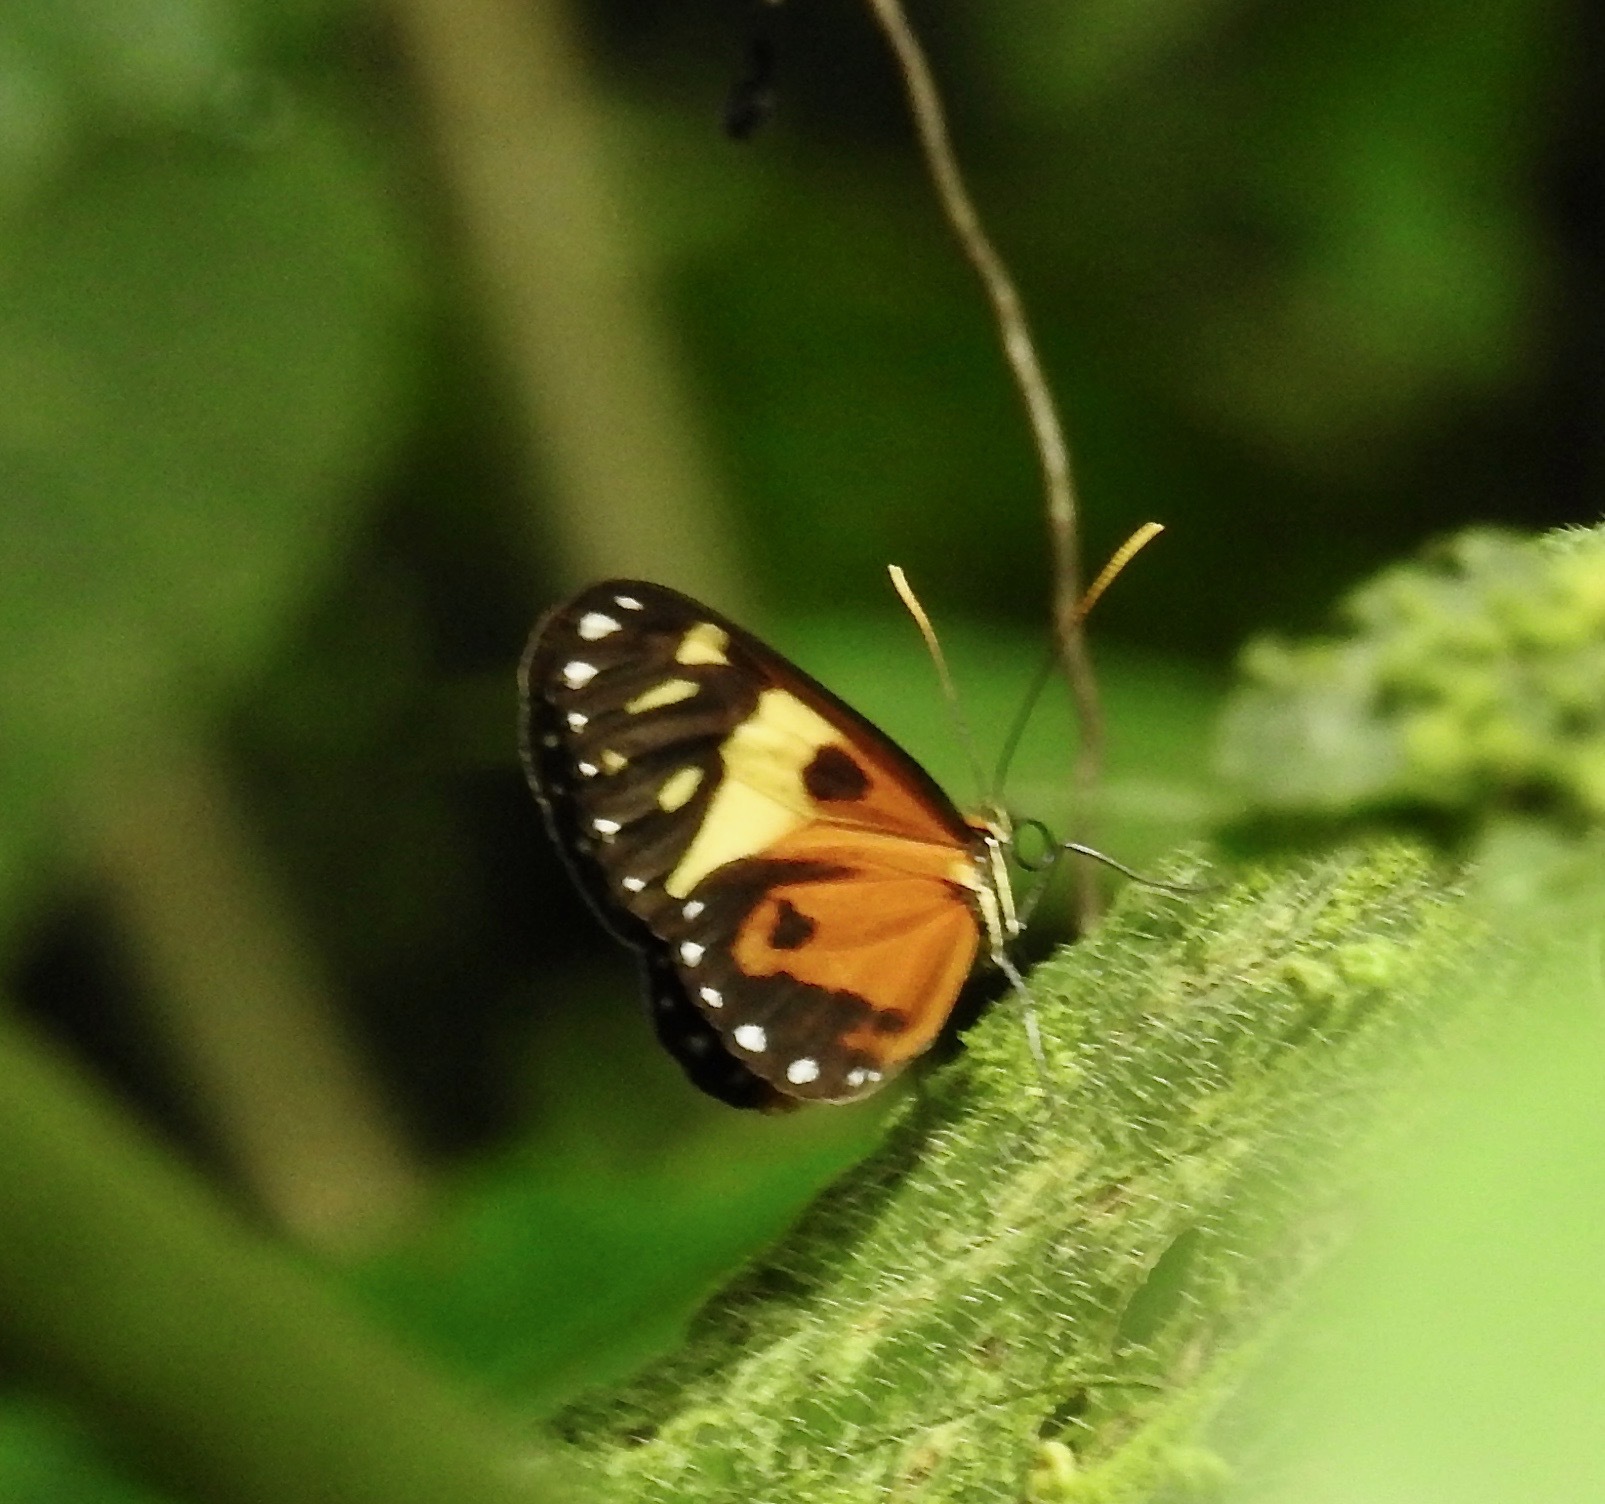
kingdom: Animalia
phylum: Arthropoda
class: Insecta
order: Lepidoptera
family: Nymphalidae
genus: Ithomia
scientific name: Ithomia iphianassa
